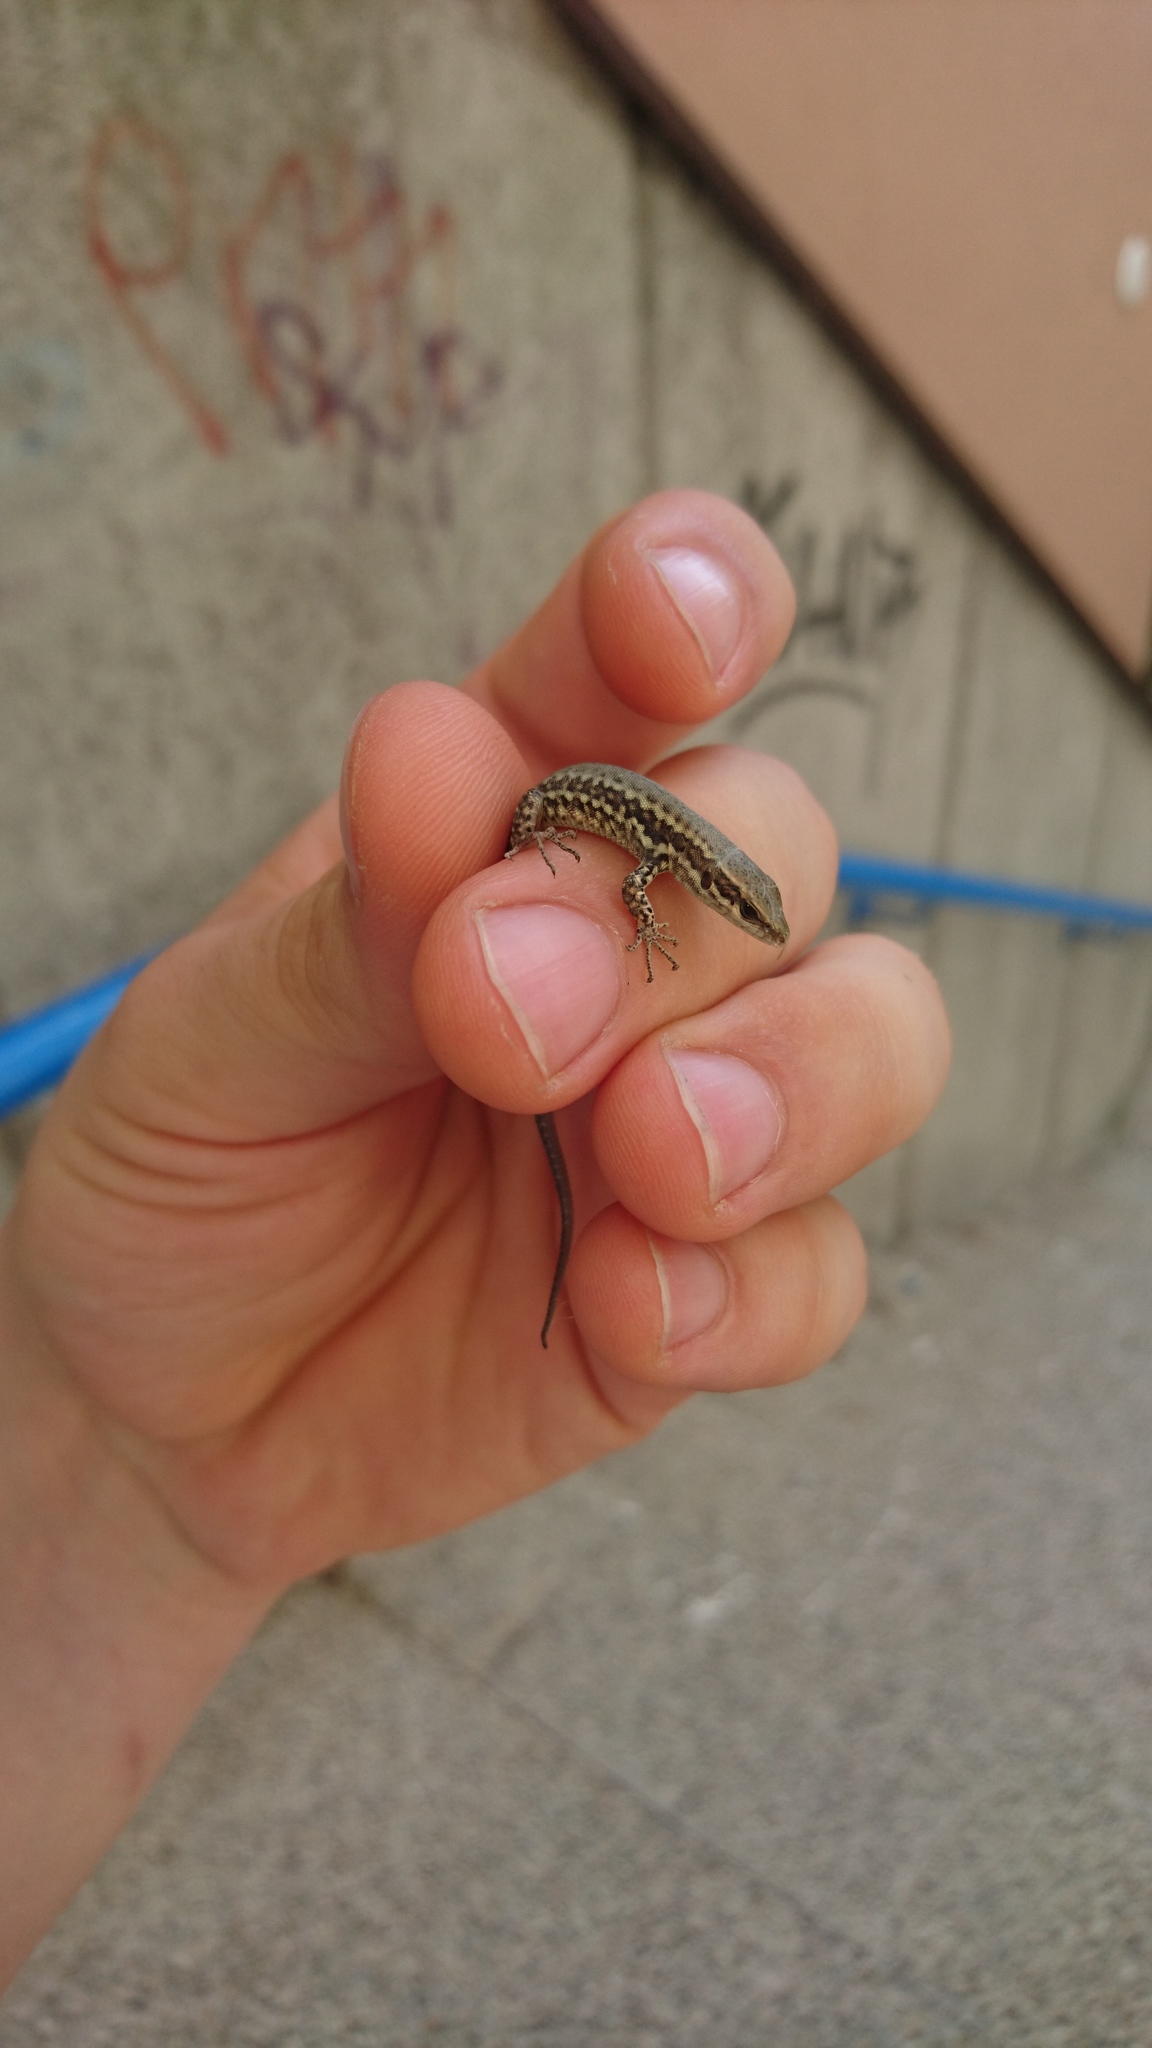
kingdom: Animalia
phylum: Chordata
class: Squamata
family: Lacertidae
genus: Podarcis
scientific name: Podarcis muralis
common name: Common wall lizard
